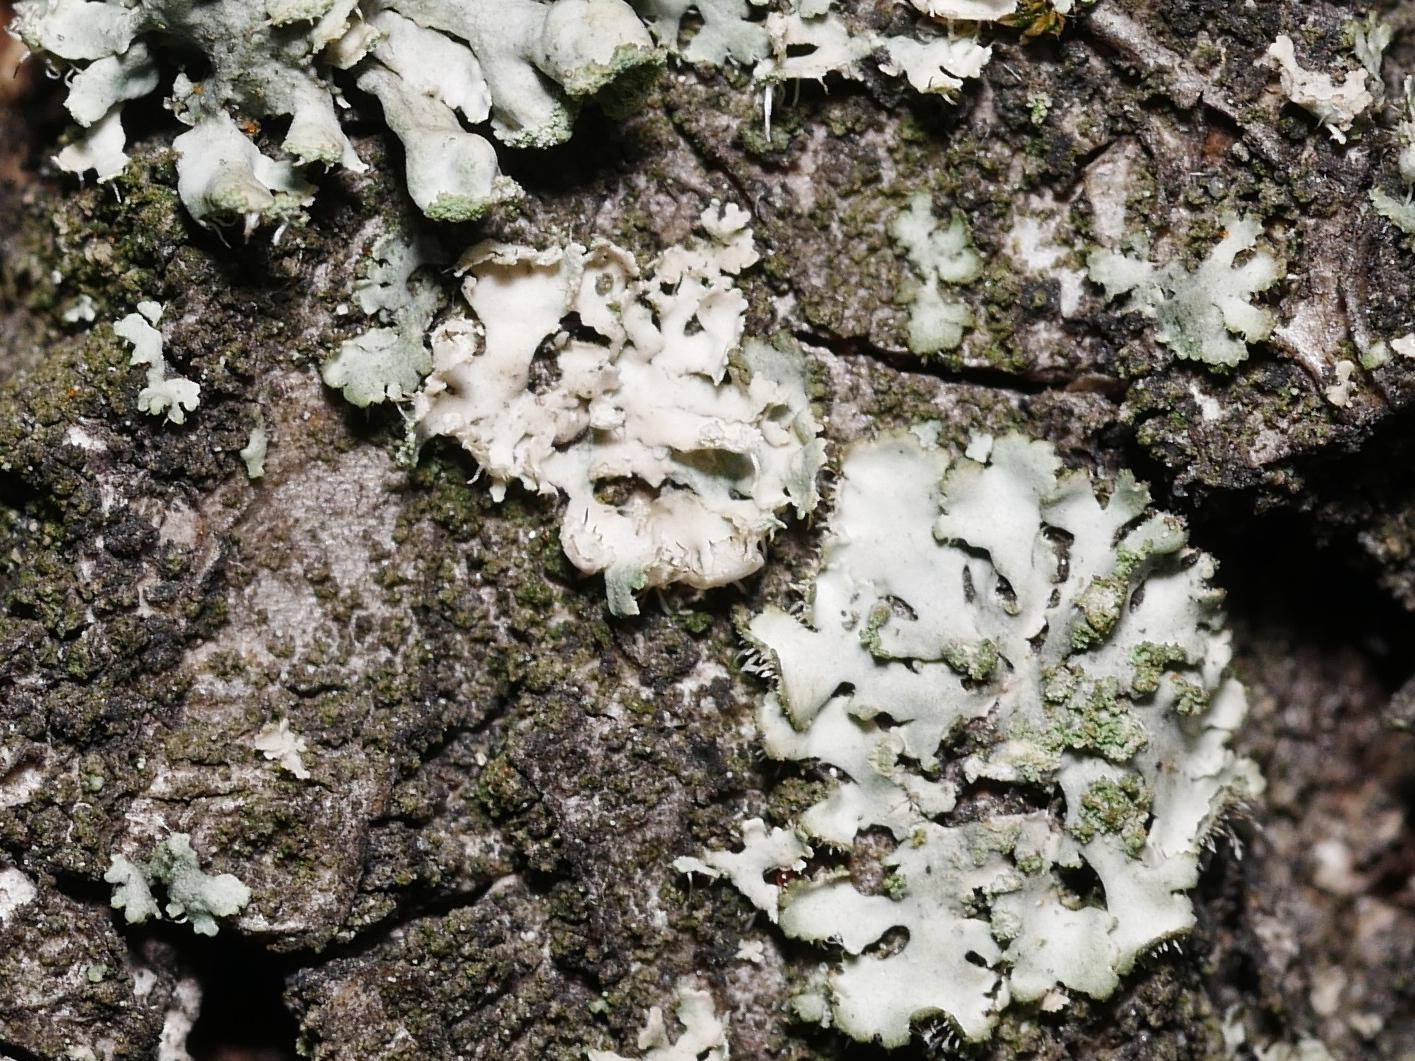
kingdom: Fungi
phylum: Ascomycota
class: Lecanoromycetes
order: Caliciales
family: Physciaceae
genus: Phaeophyscia
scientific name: Phaeophyscia orbicularis
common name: Mealy shadow lichen
